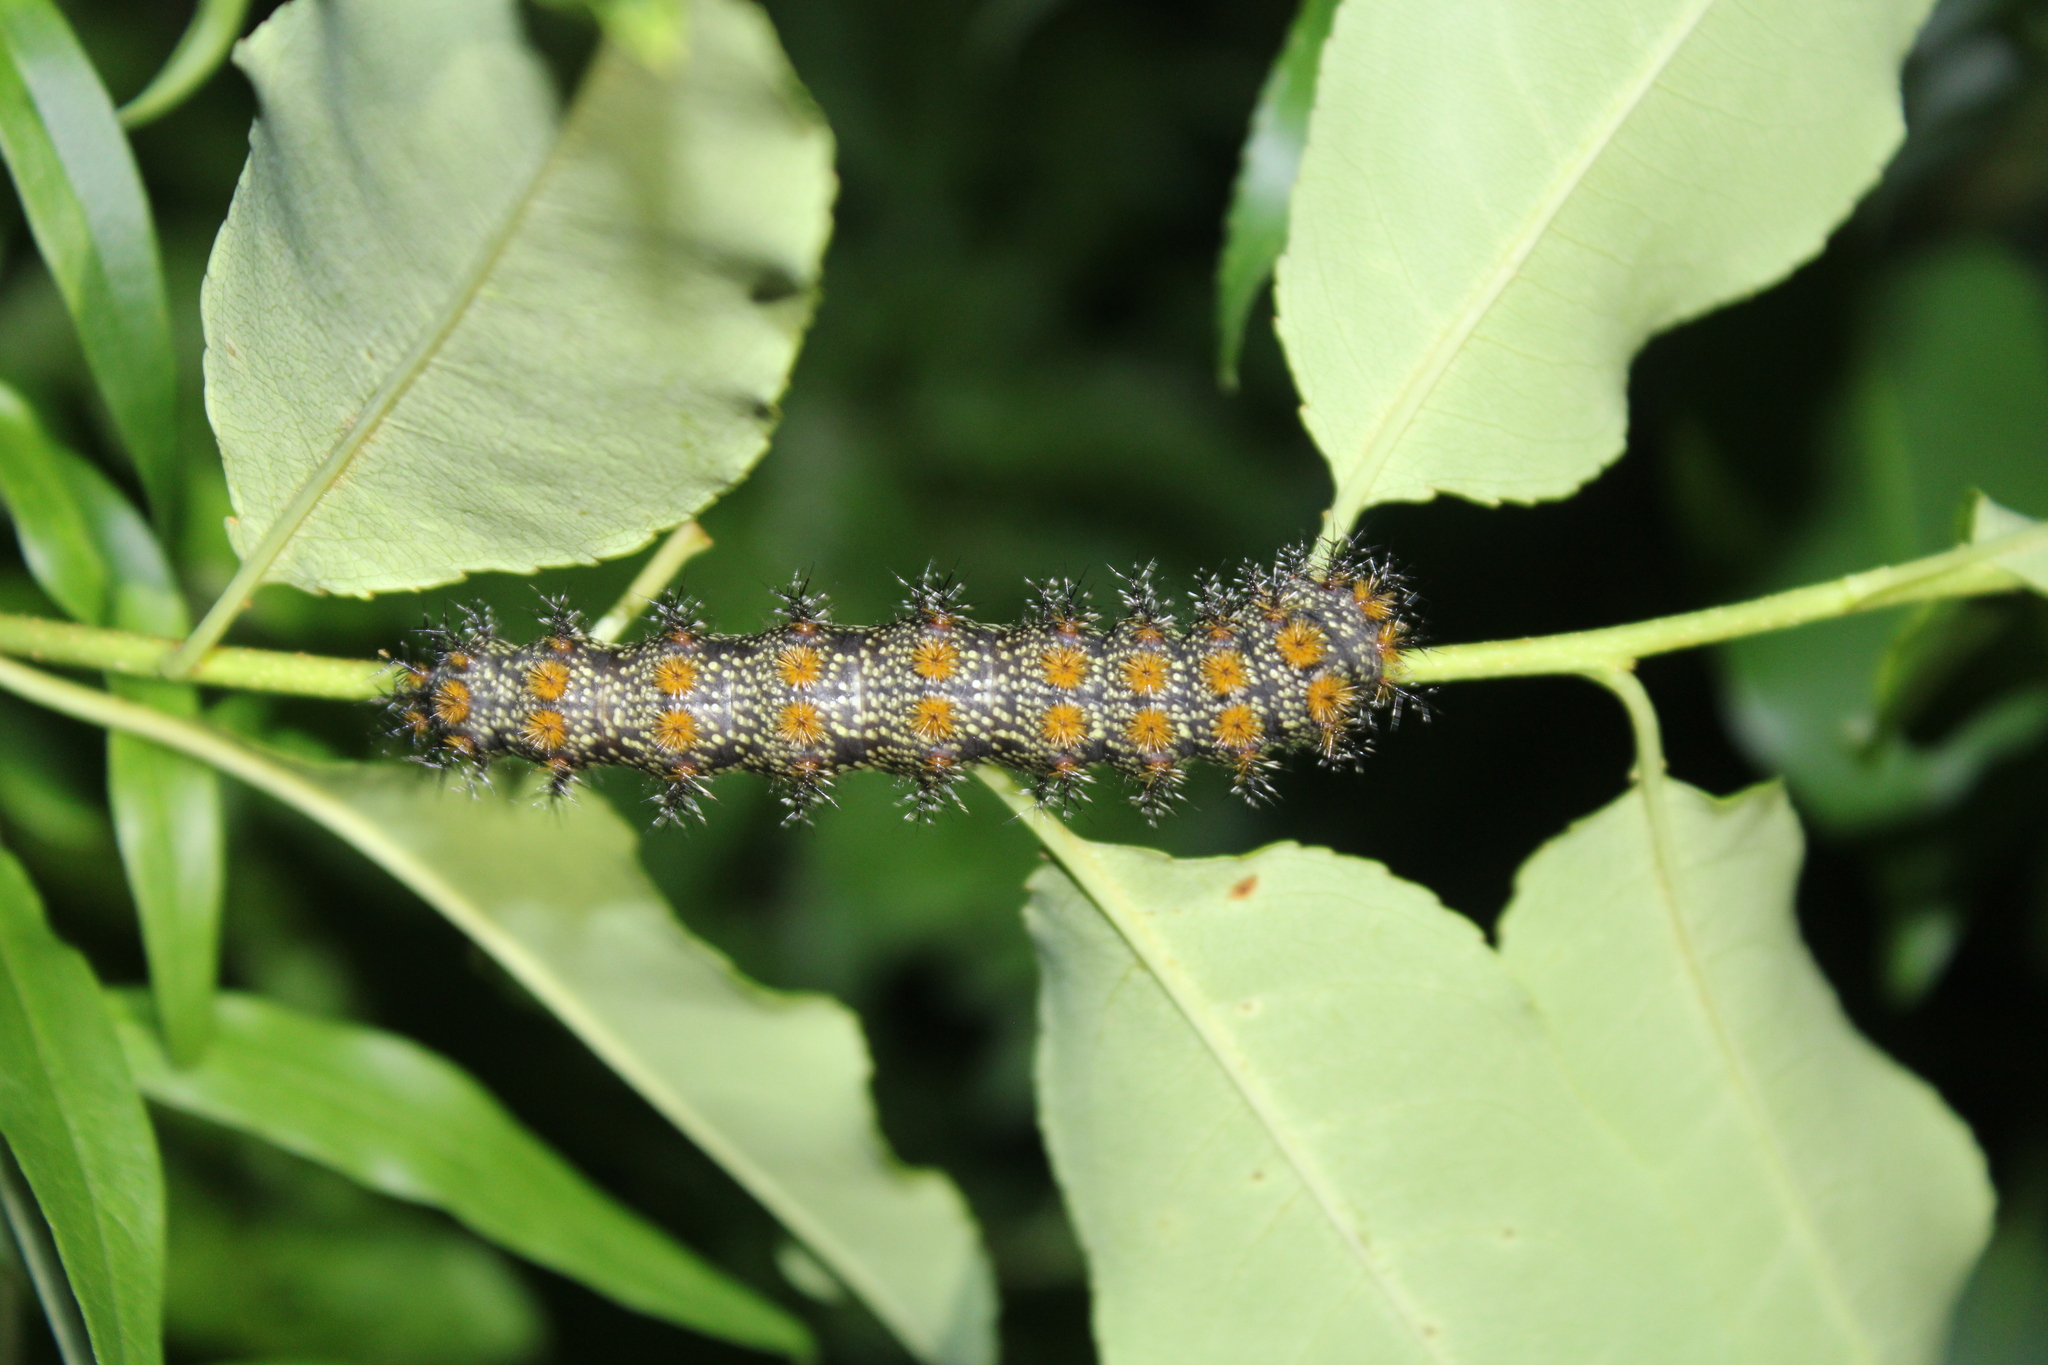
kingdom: Animalia
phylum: Arthropoda
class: Insecta
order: Lepidoptera
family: Saturniidae
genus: Hemileuca
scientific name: Hemileuca maia
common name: Eastern buckmoth
